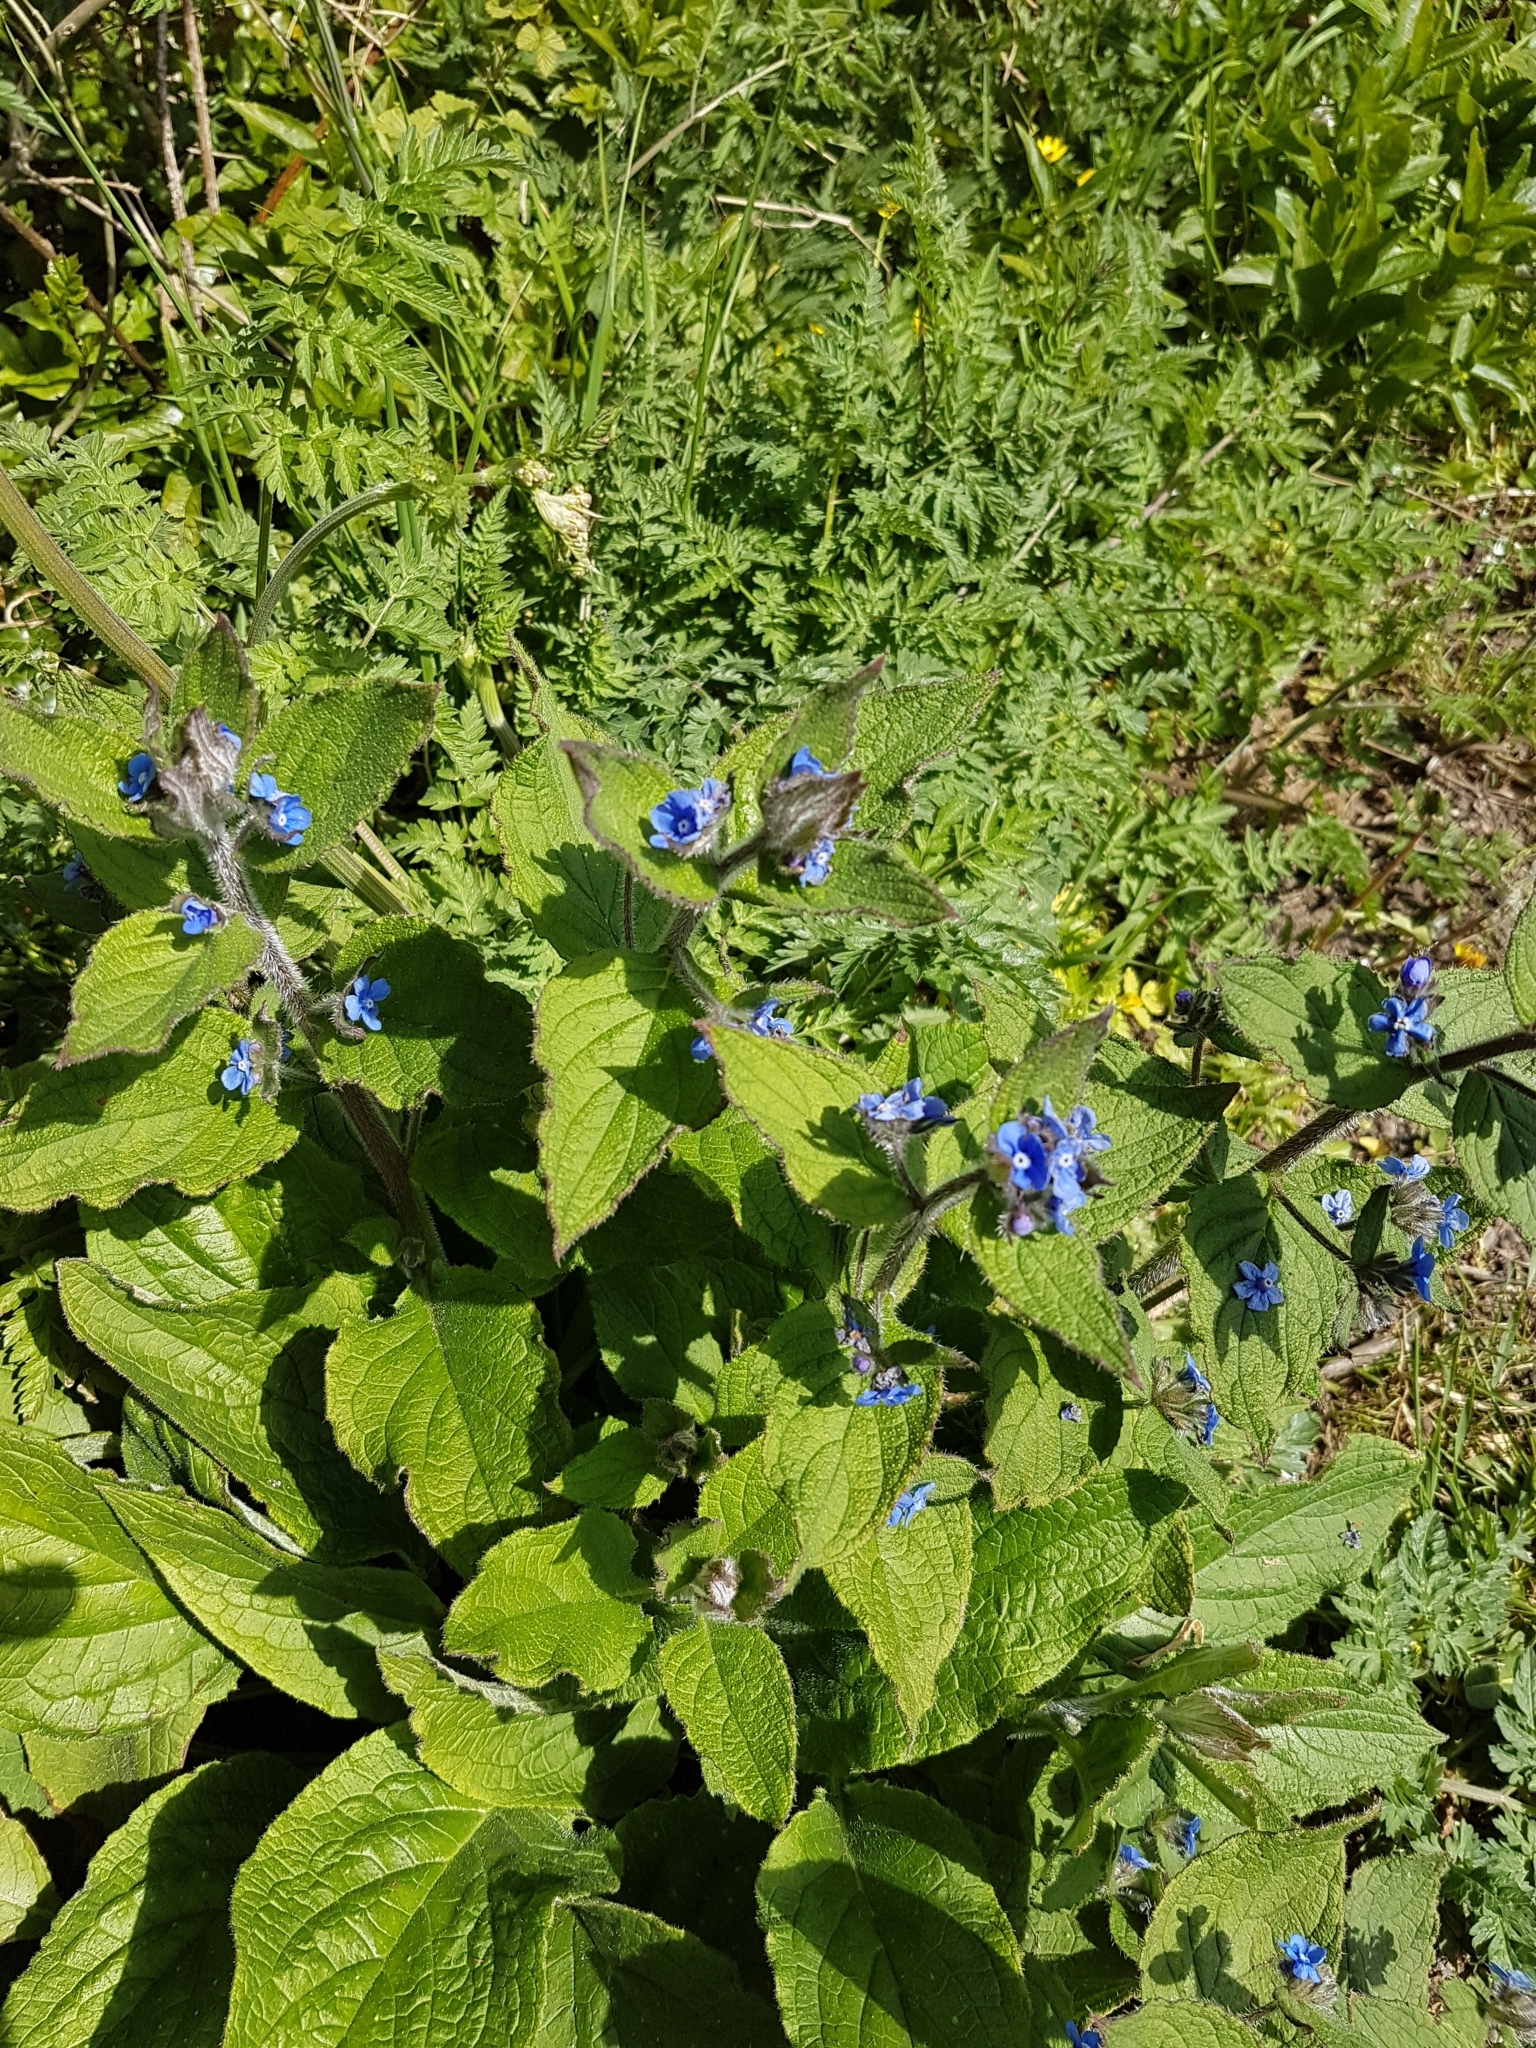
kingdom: Plantae
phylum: Tracheophyta
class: Magnoliopsida
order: Boraginales
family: Boraginaceae
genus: Pentaglottis
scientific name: Pentaglottis sempervirens
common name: Green alkanet
